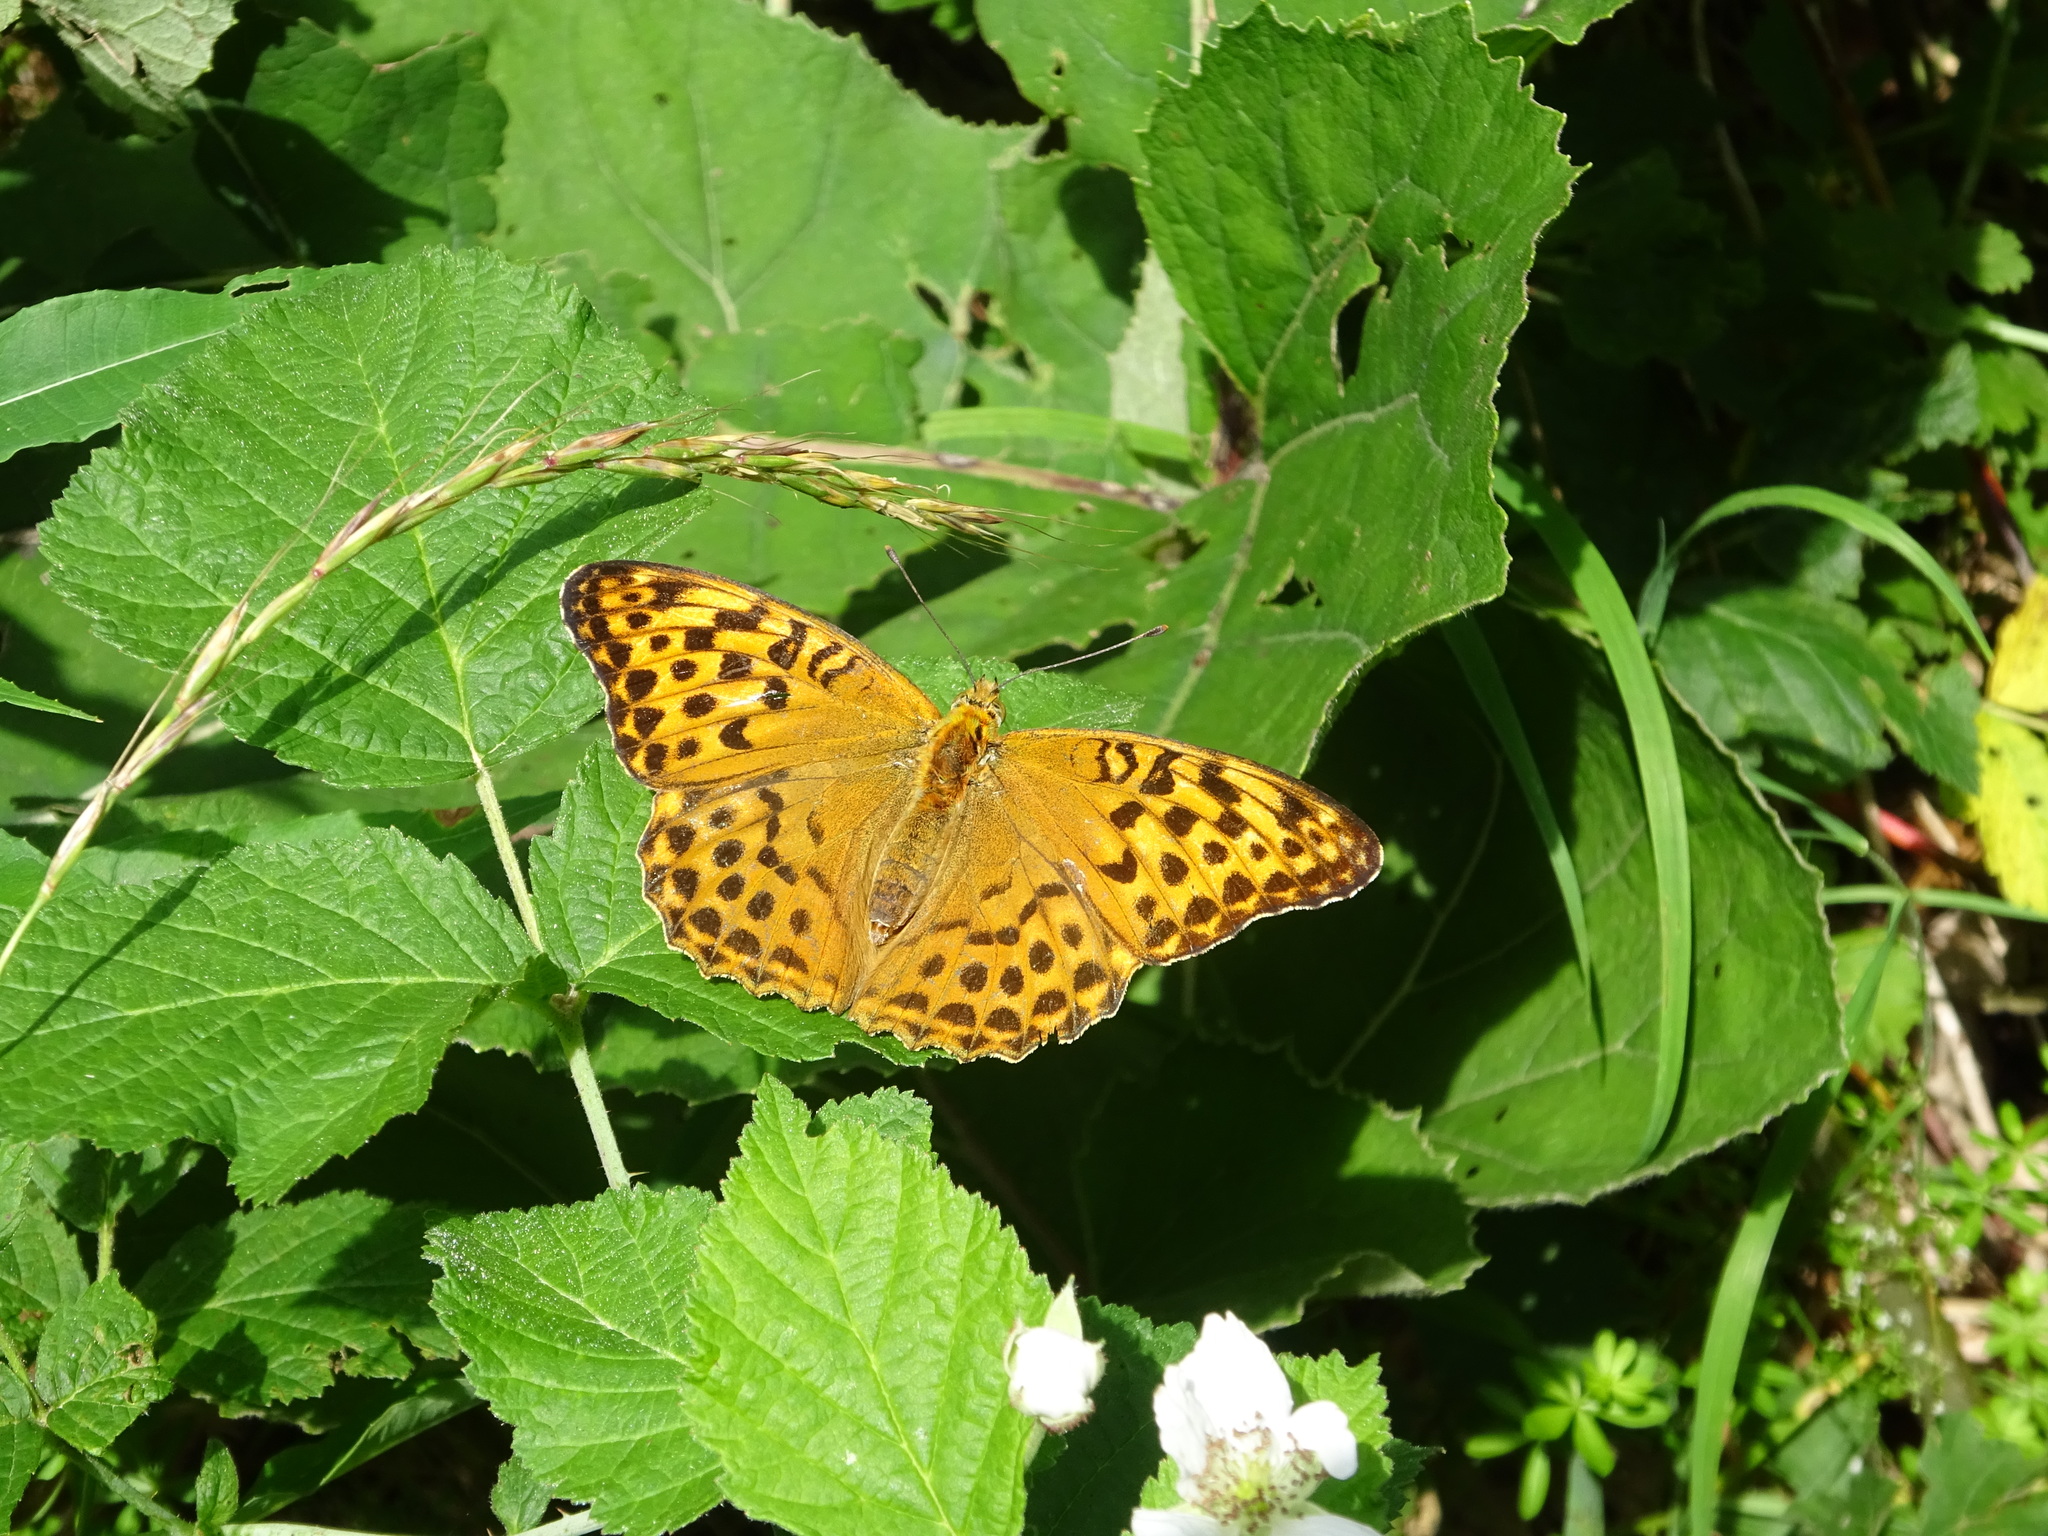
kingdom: Animalia
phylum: Arthropoda
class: Insecta
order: Lepidoptera
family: Nymphalidae
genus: Argynnis
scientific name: Argynnis paphia
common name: Silver-washed fritillary
